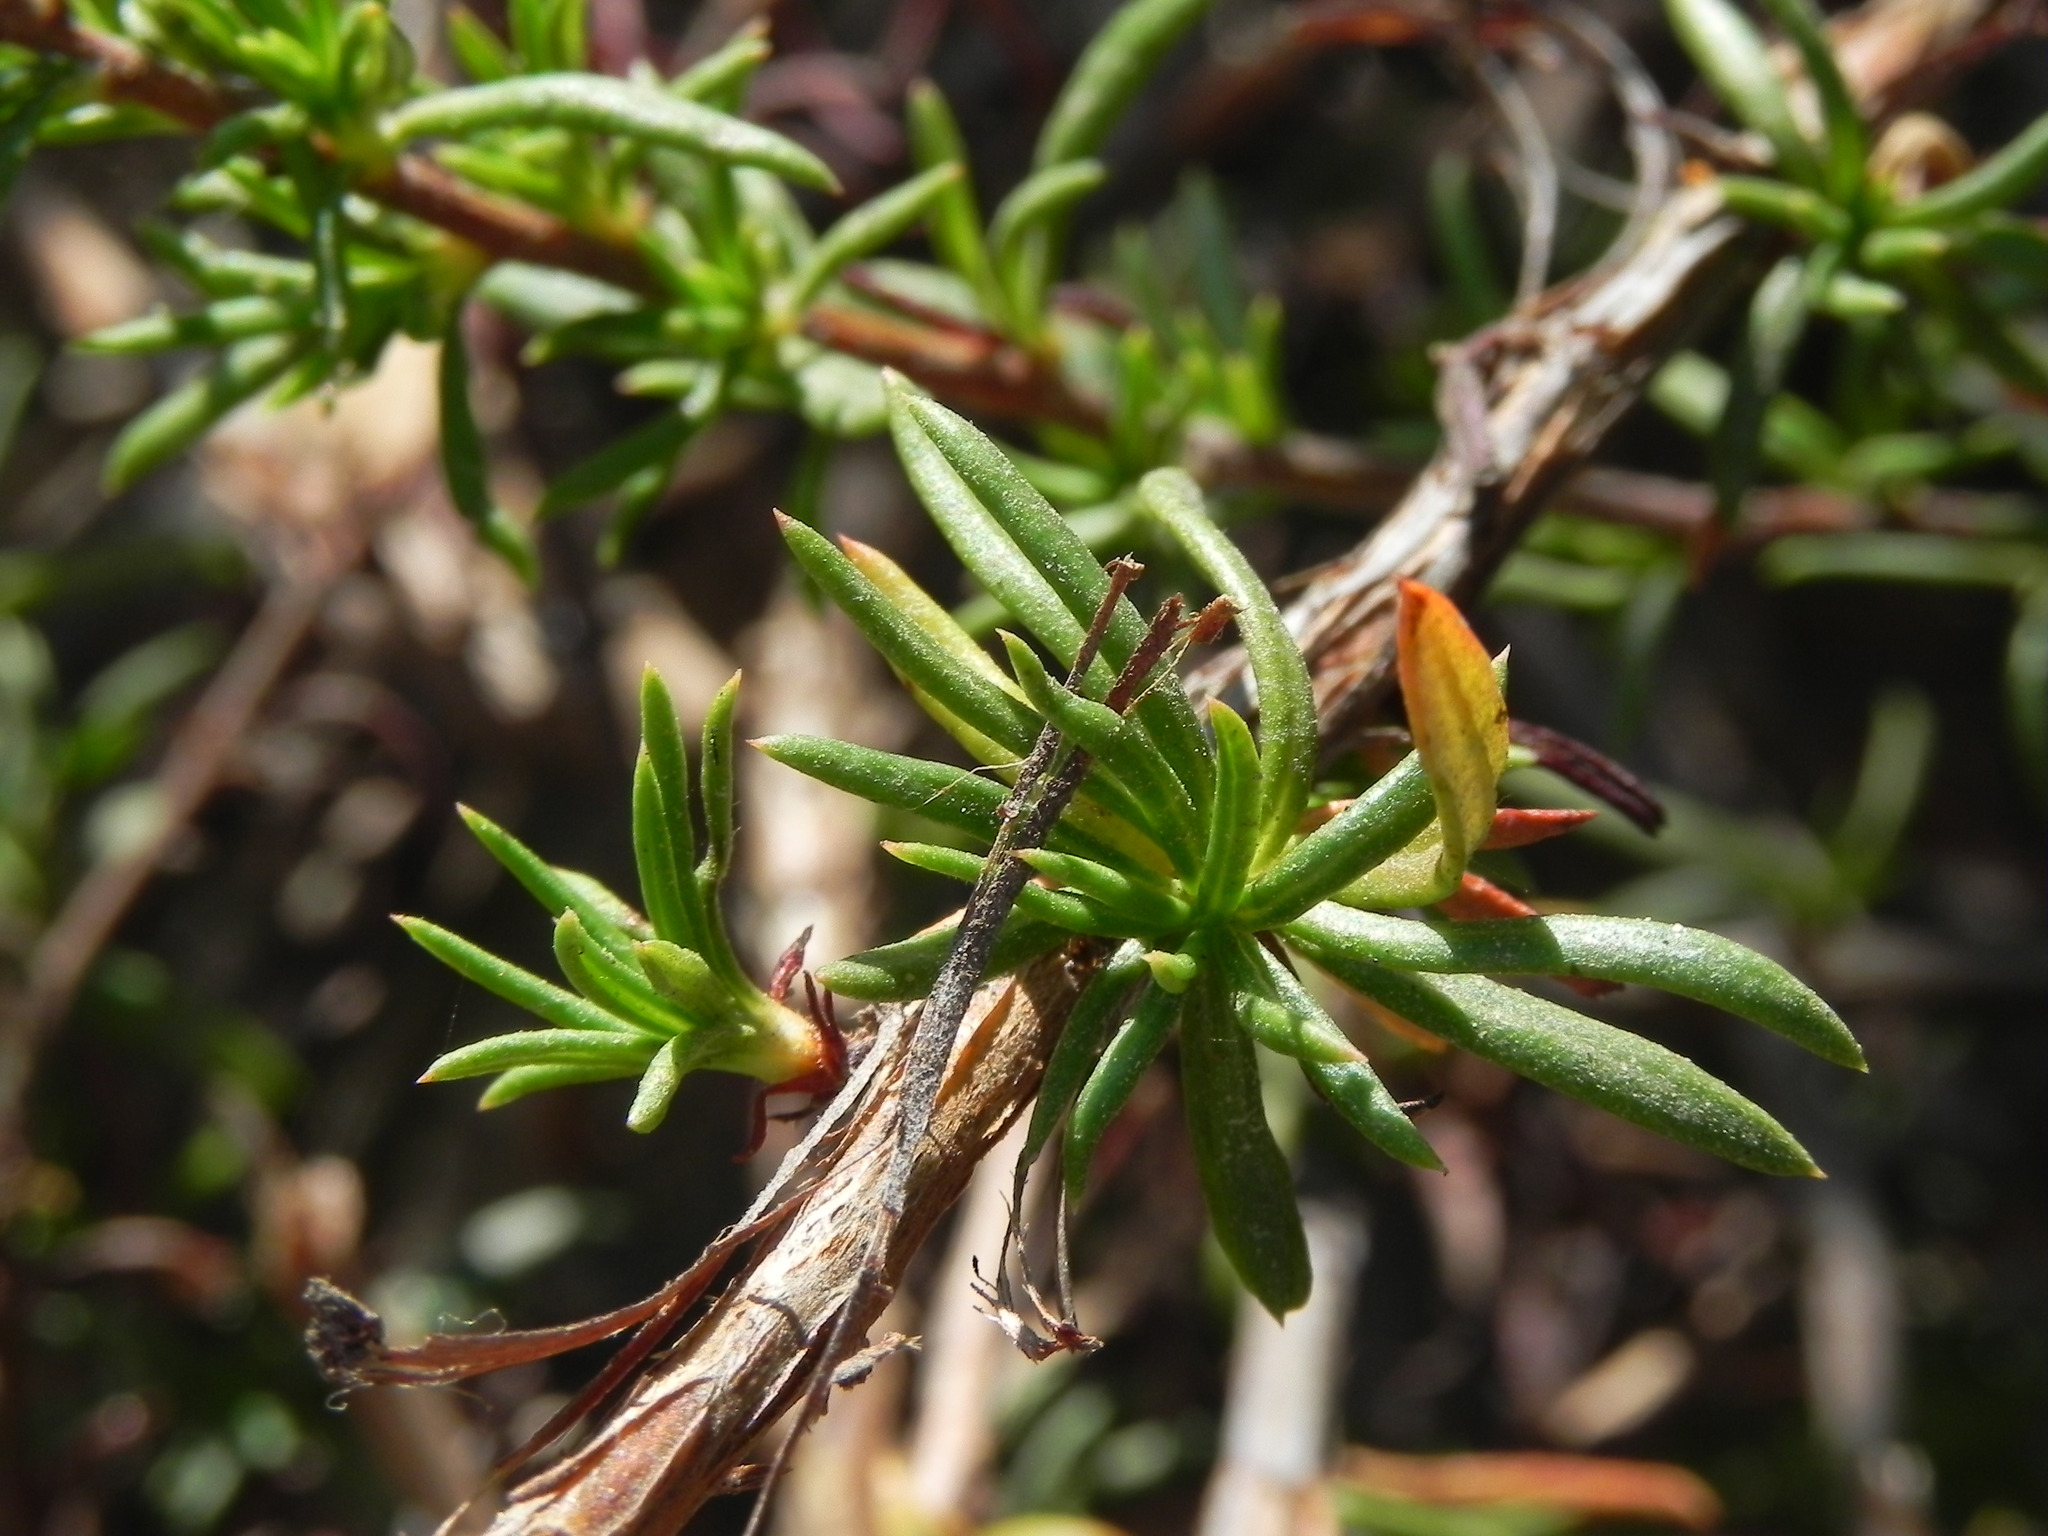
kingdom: Plantae
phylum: Tracheophyta
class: Magnoliopsida
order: Caryophyllales
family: Polygonaceae
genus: Eriogonum
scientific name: Eriogonum fasciculatum
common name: California wild buckwheat
